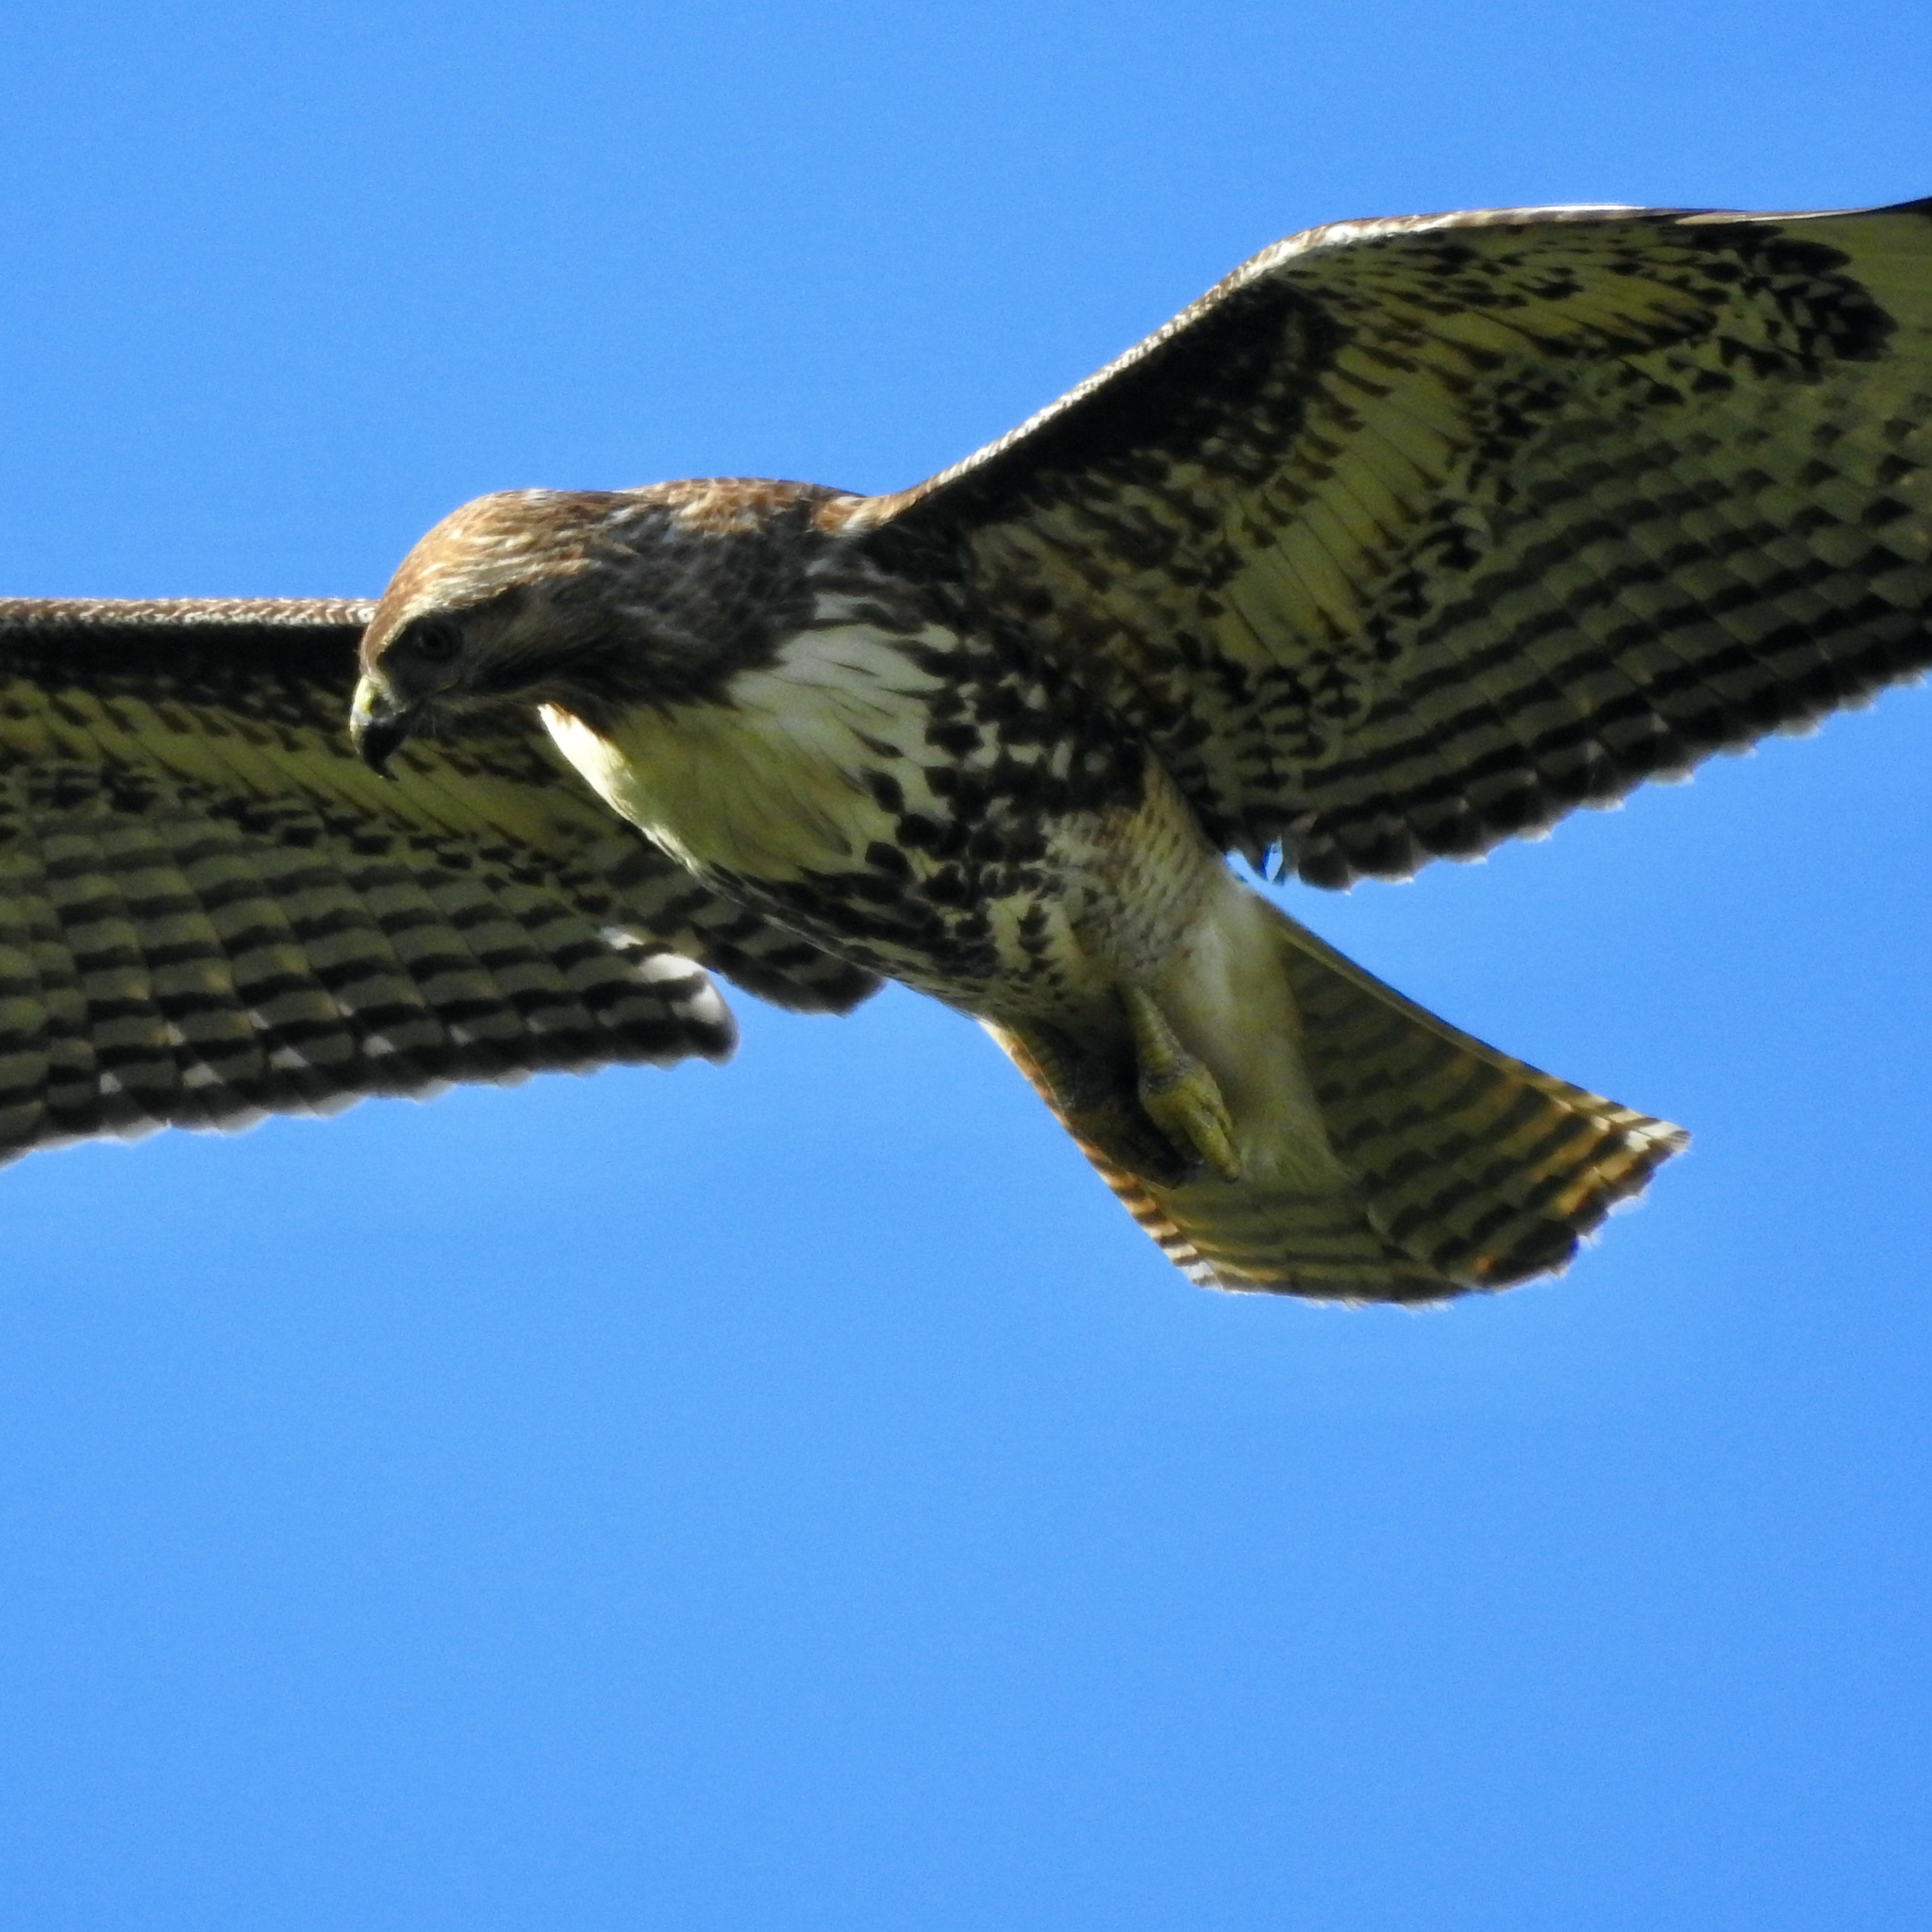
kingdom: Animalia
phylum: Chordata
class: Aves
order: Accipitriformes
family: Accipitridae
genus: Buteo
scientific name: Buteo jamaicensis
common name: Red-tailed hawk
